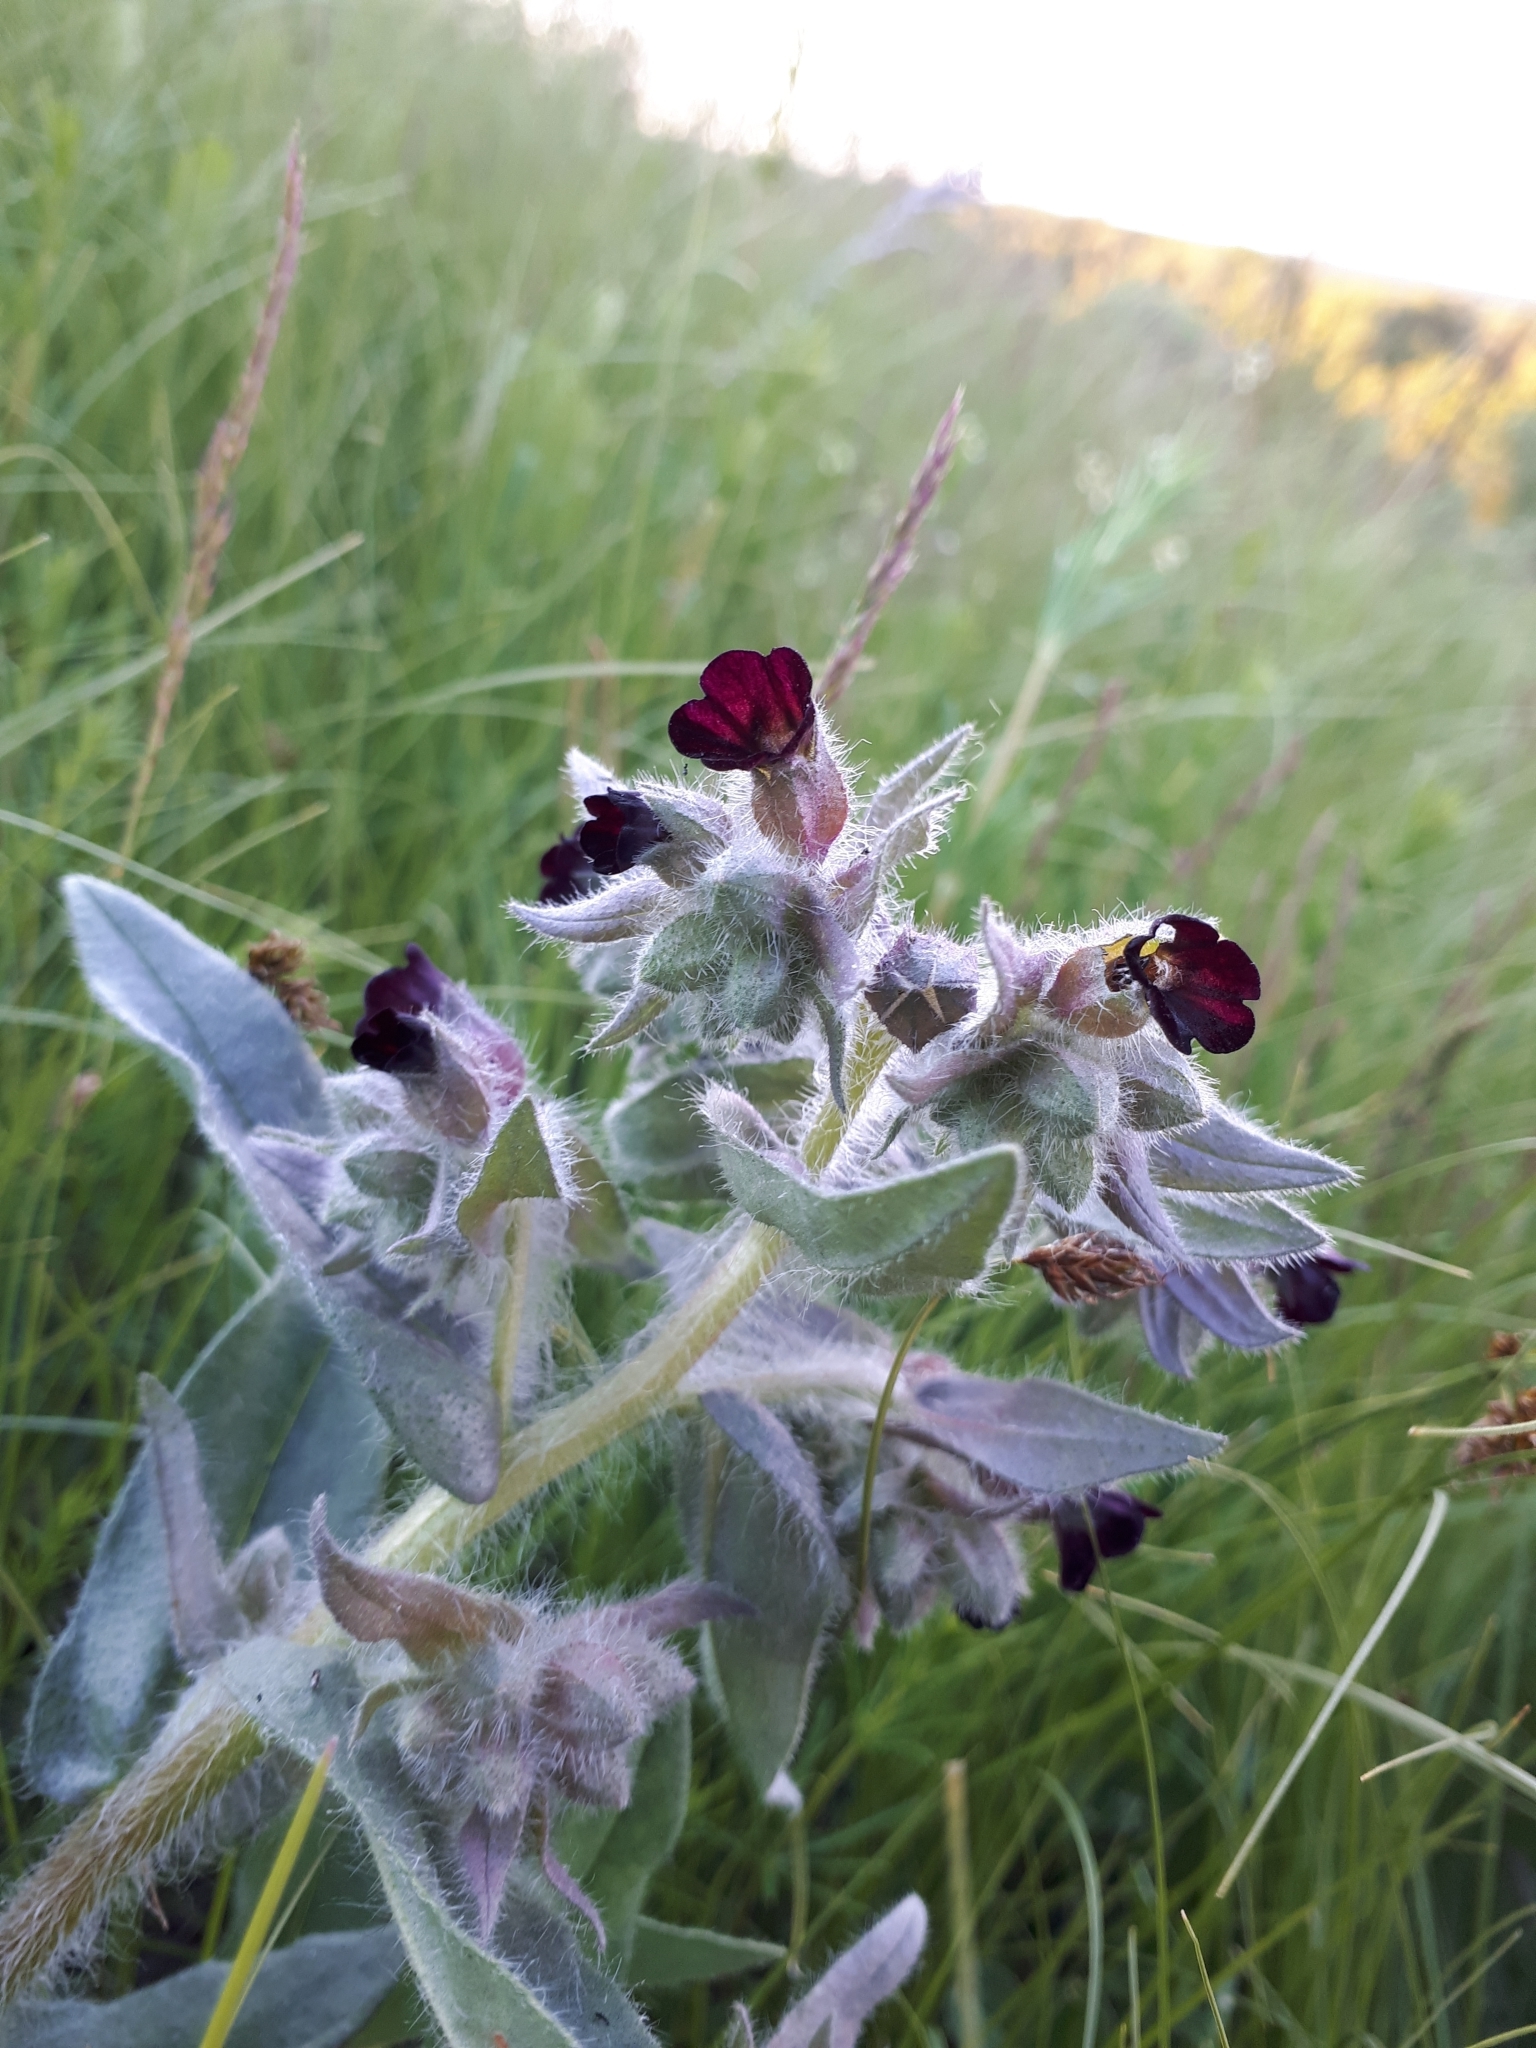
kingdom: Plantae
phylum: Tracheophyta
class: Magnoliopsida
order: Boraginales
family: Boraginaceae
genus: Nonea
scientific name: Nonea pulla
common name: Brown nonea
